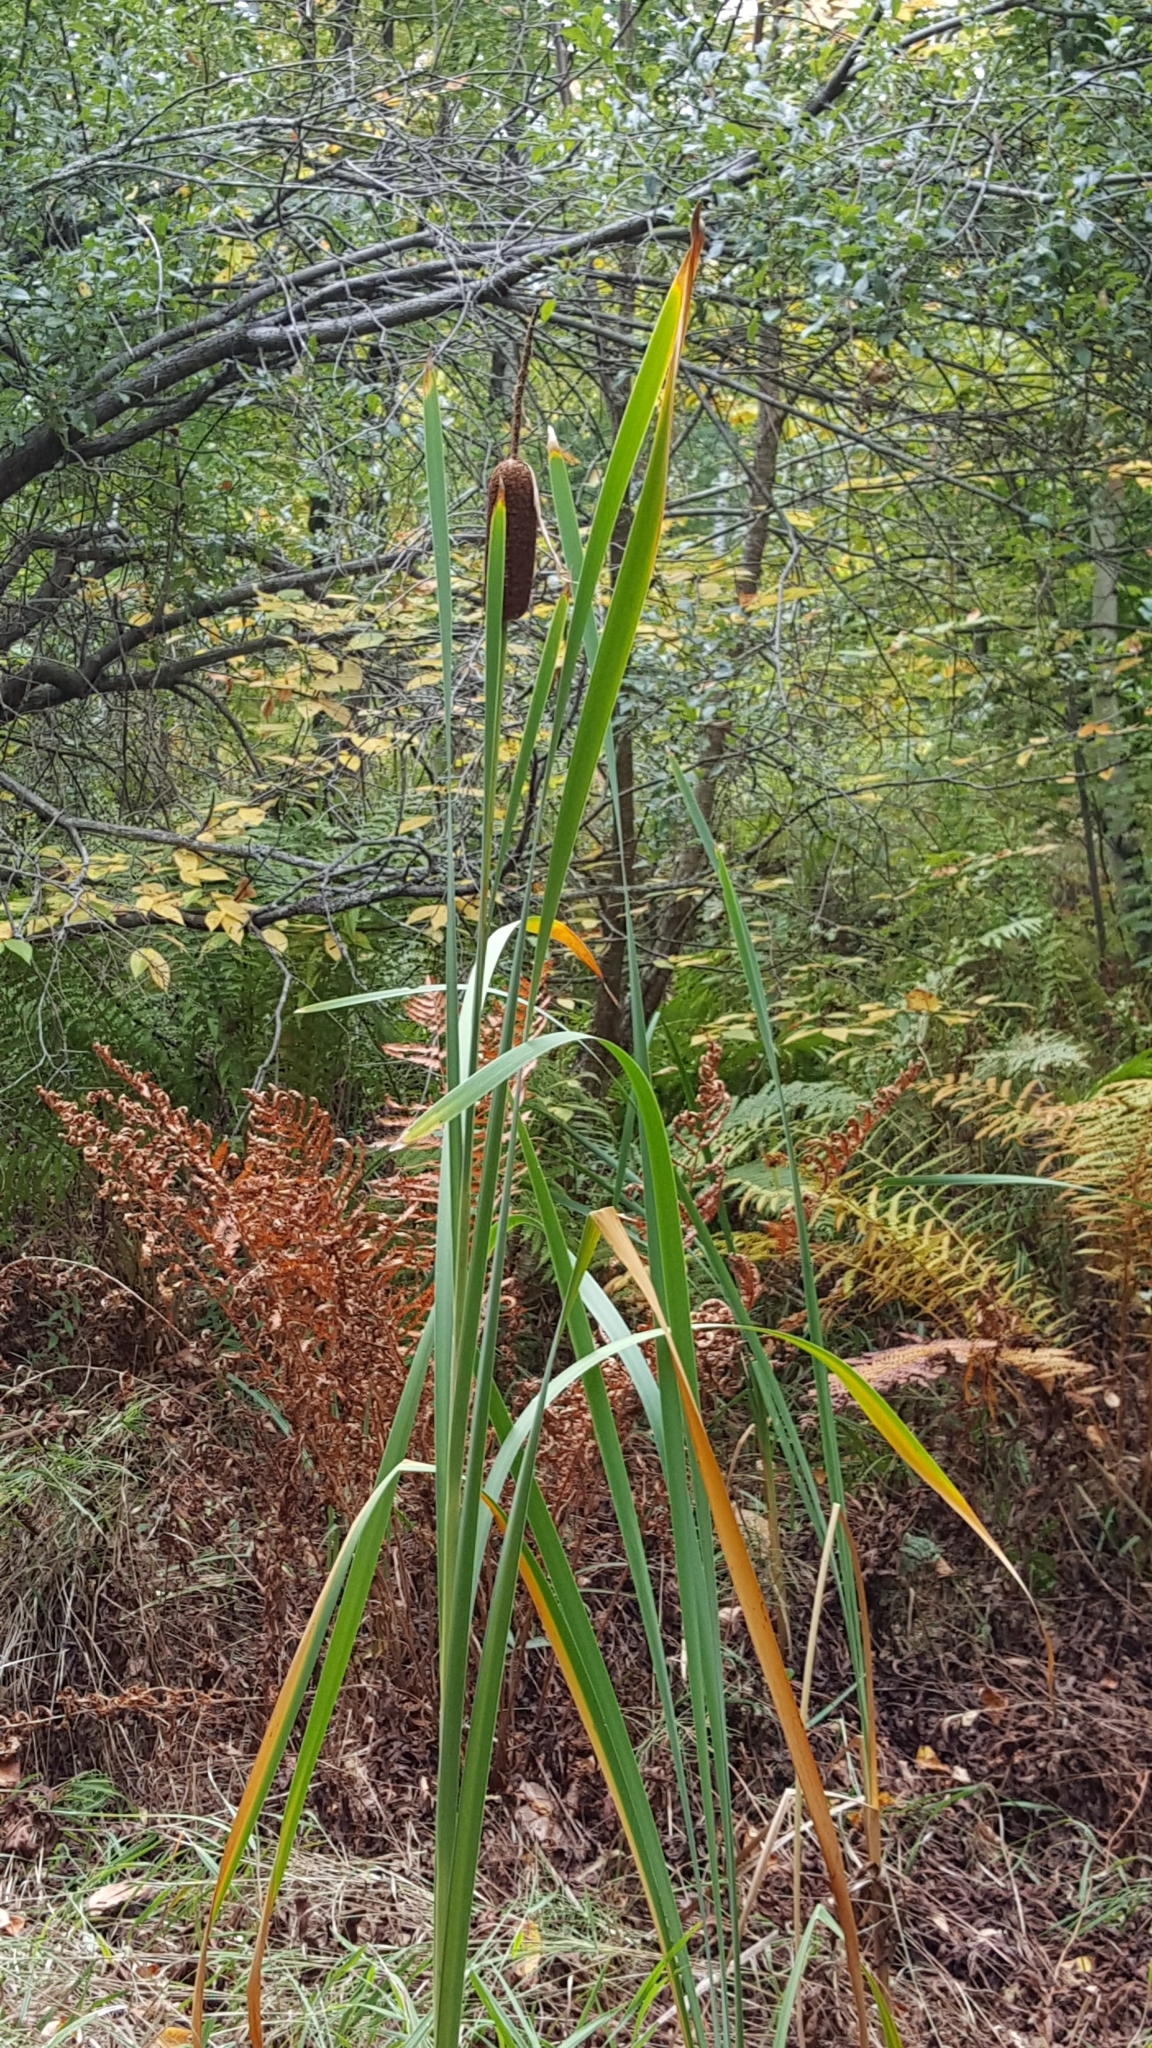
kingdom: Plantae
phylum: Tracheophyta
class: Liliopsida
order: Poales
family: Typhaceae
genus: Typha
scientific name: Typha latifolia
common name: Broadleaf cattail
